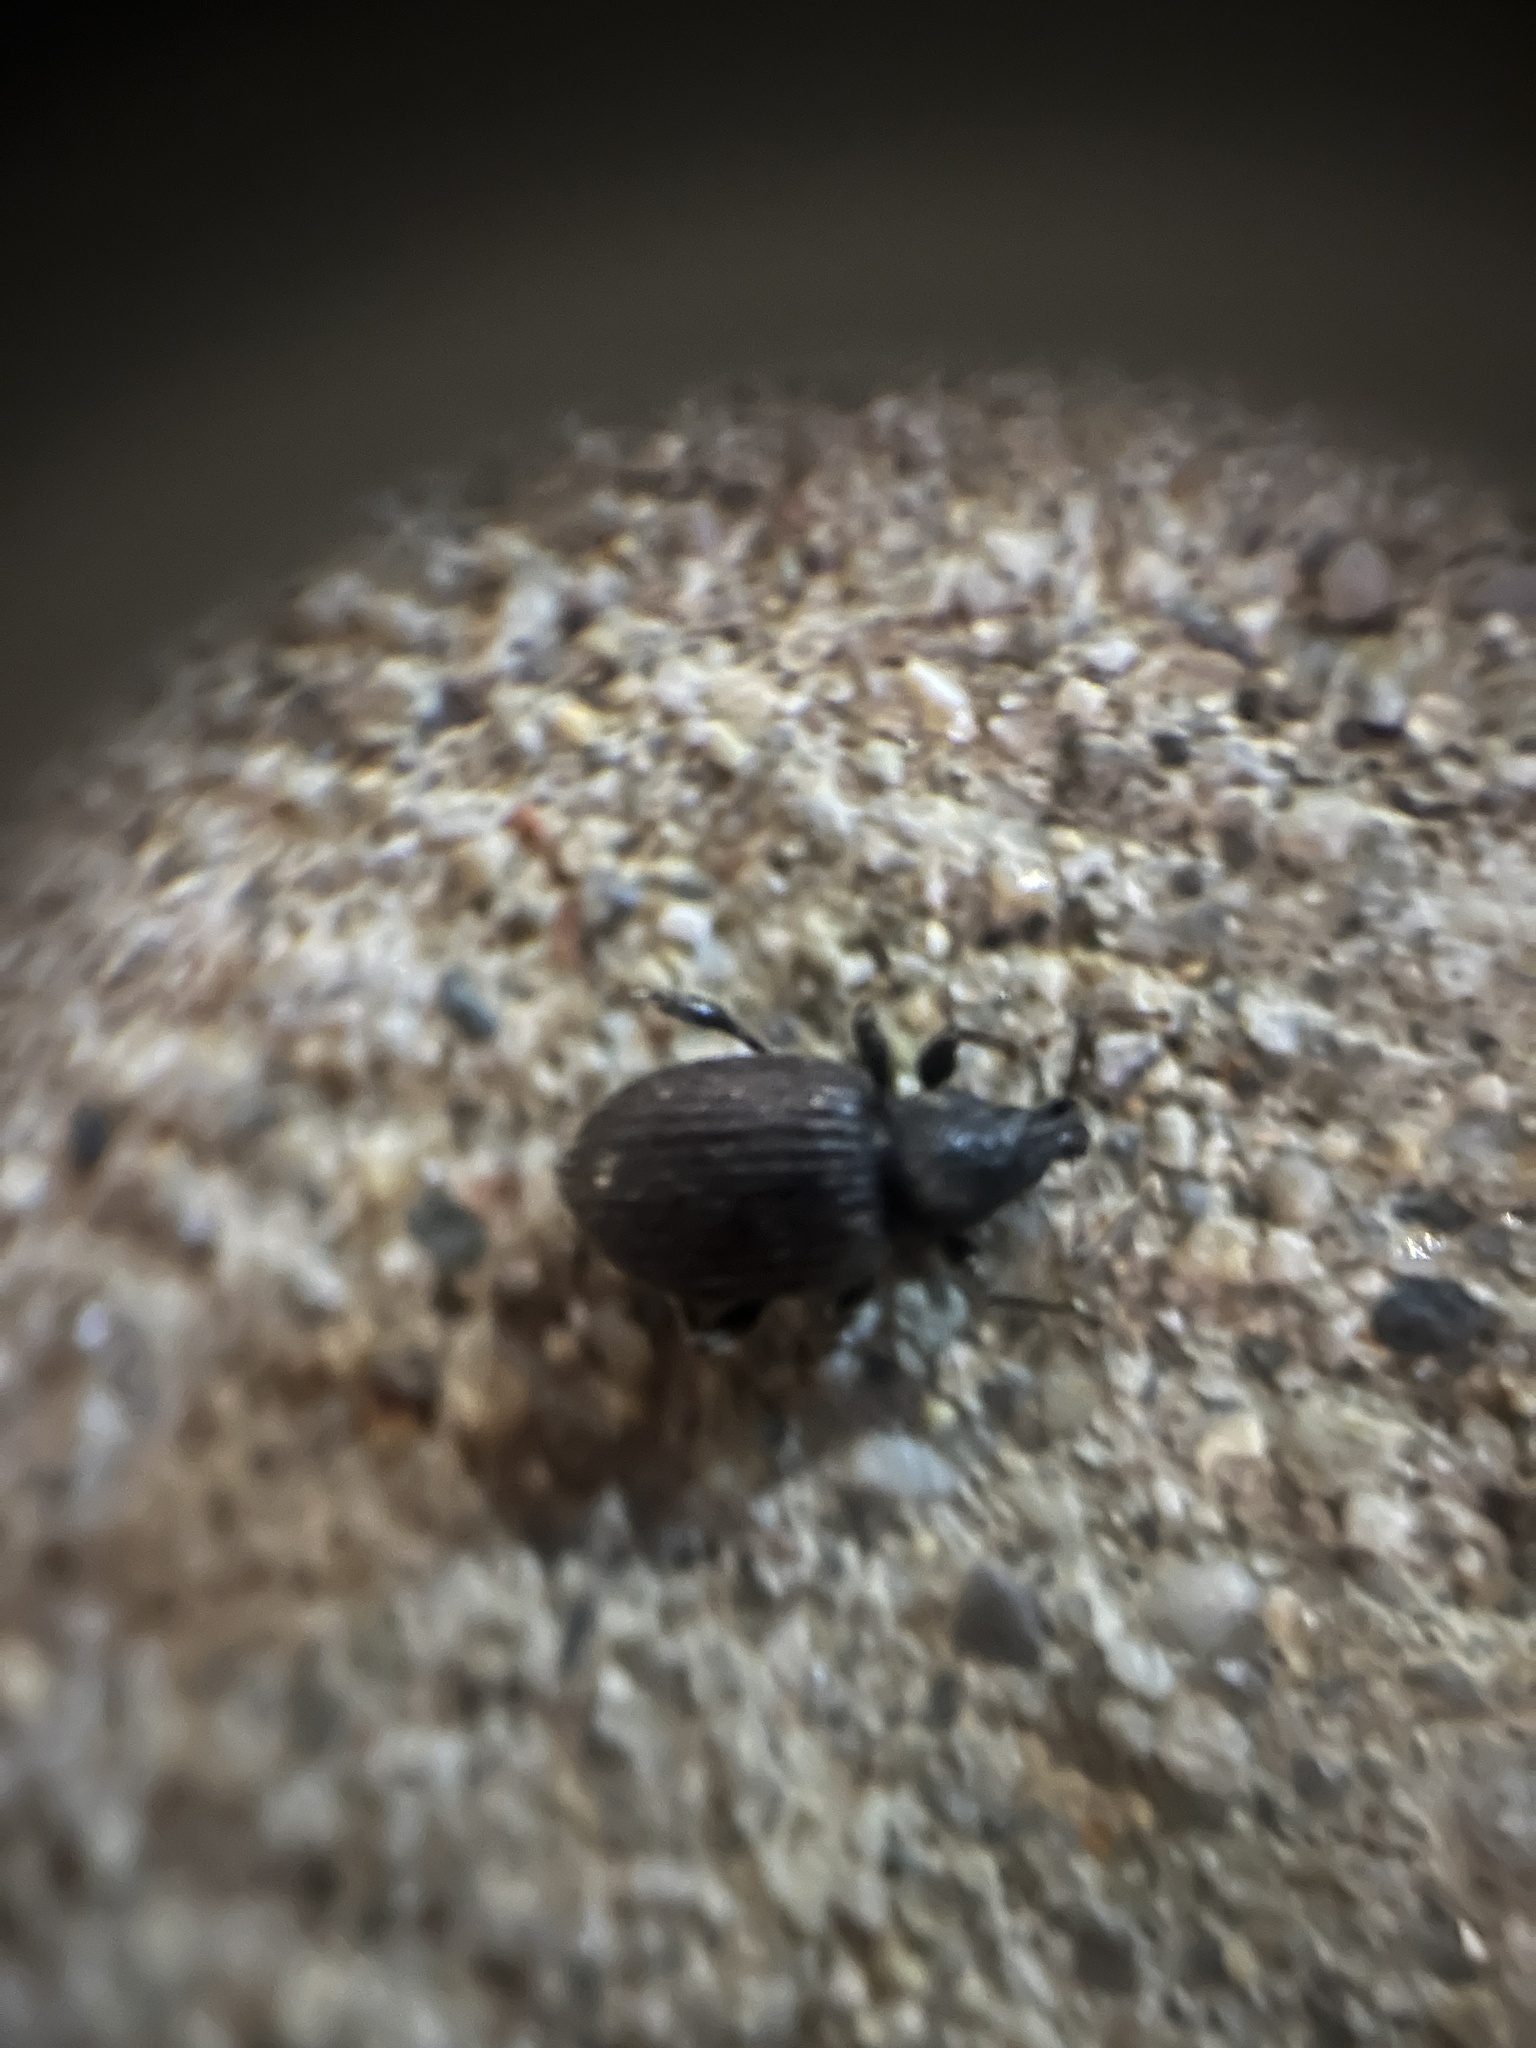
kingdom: Animalia
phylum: Arthropoda
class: Insecta
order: Coleoptera
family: Curculionidae
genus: Otiorhynchus
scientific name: Otiorhynchus rugosostriatus
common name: Weevil
